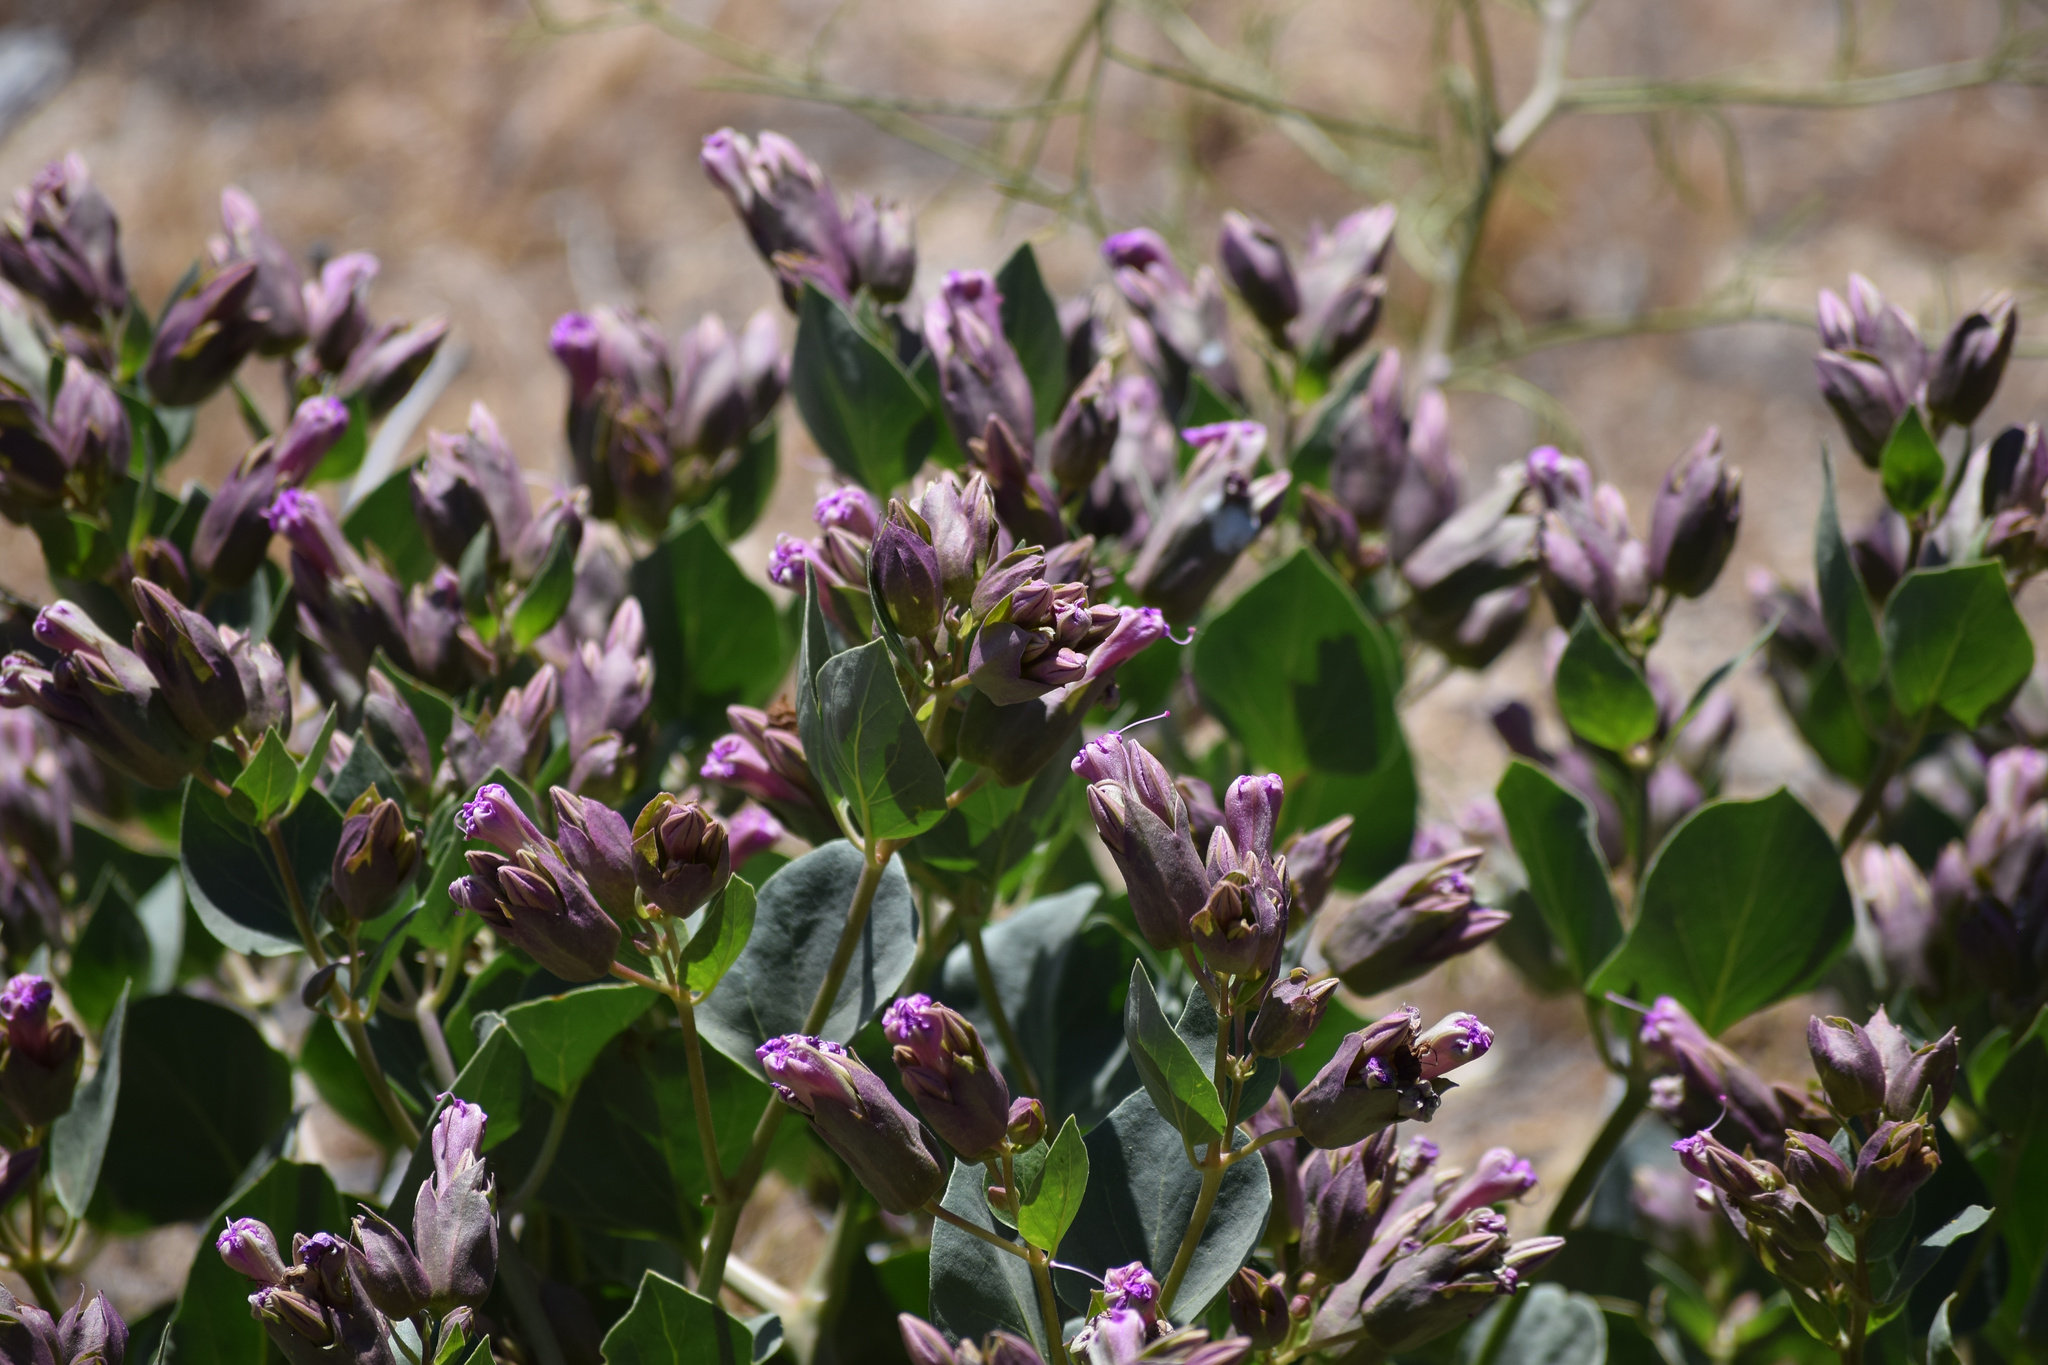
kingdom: Plantae
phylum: Tracheophyta
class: Magnoliopsida
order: Caryophyllales
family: Nyctaginaceae
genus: Mirabilis
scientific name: Mirabilis multiflora
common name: Froebel's four-o'clock
